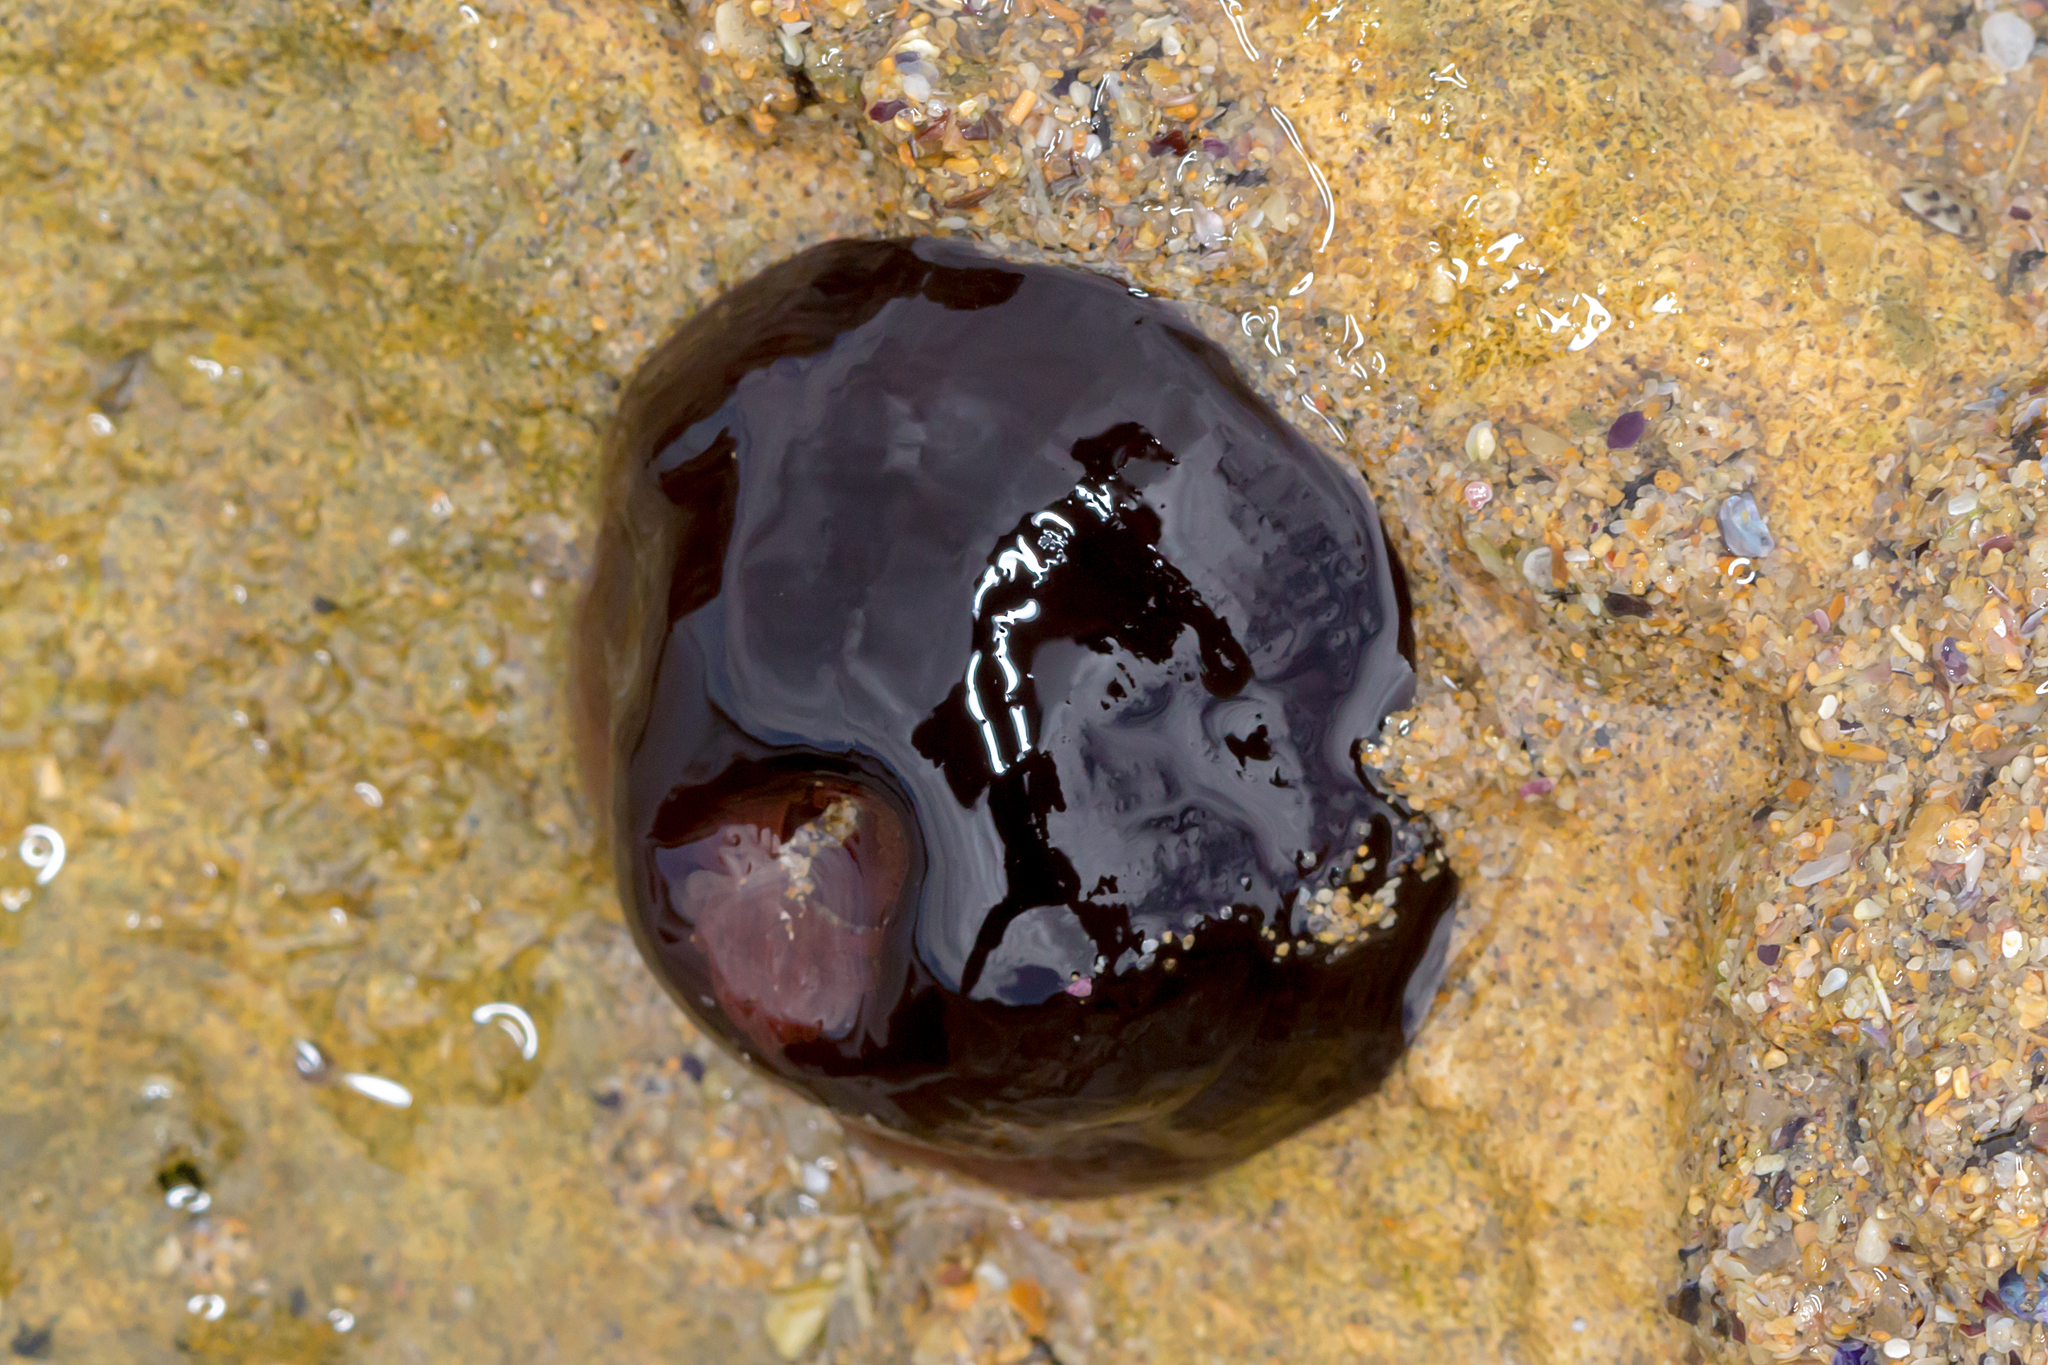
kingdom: Animalia
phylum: Cnidaria
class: Anthozoa
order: Actiniaria
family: Actiniidae
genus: Actinia
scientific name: Actinia tenebrosa
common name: Waratah anemone
